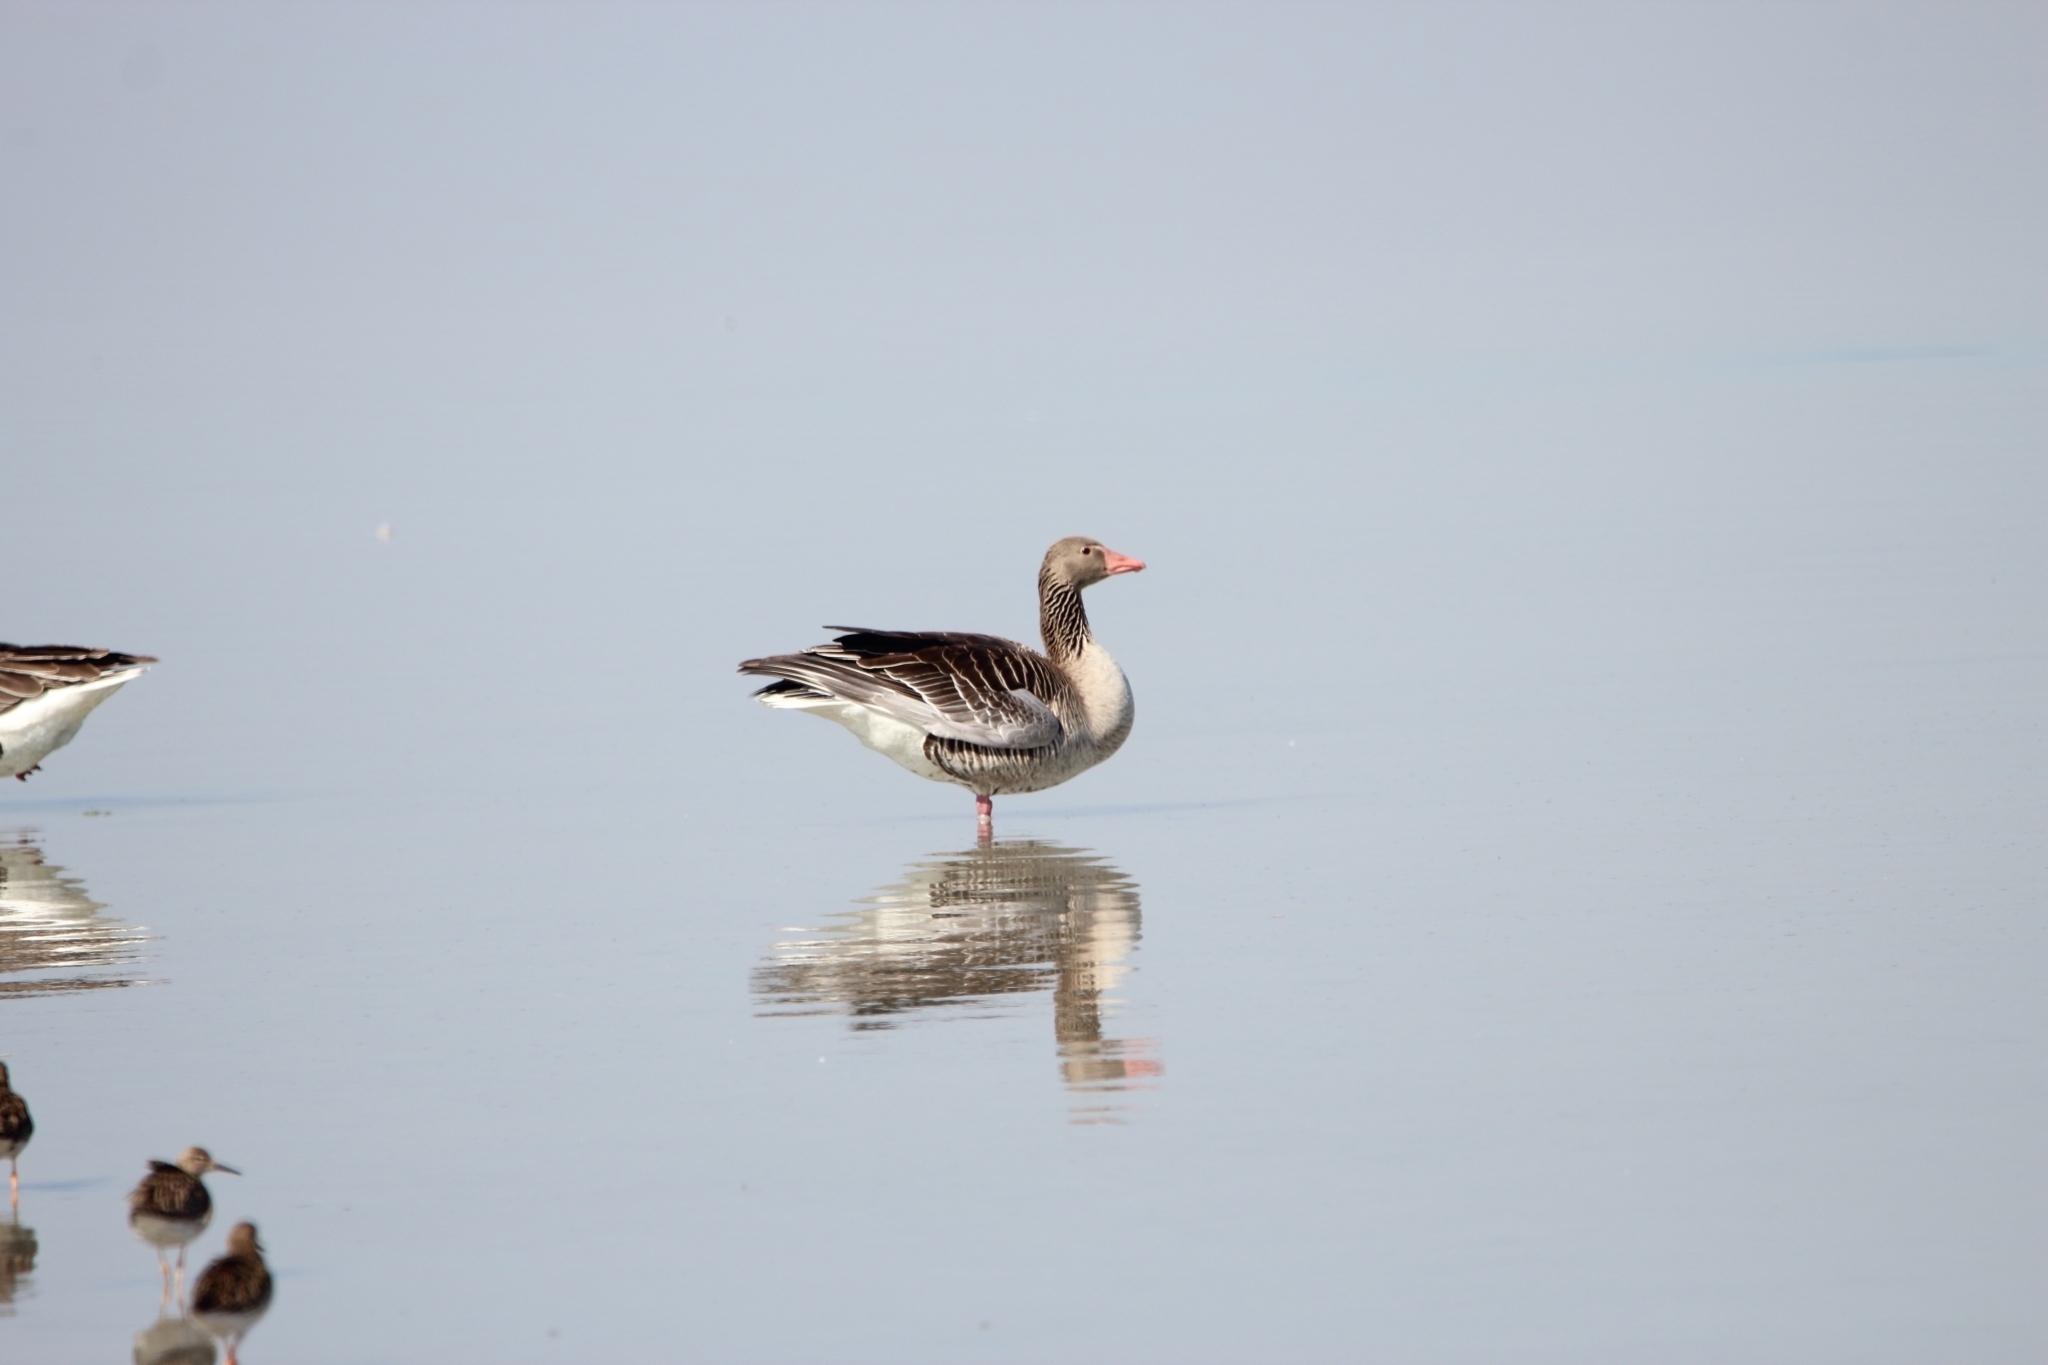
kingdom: Animalia
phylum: Chordata
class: Aves
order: Anseriformes
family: Anatidae
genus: Anser
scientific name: Anser albifrons
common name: Greater white-fronted goose
